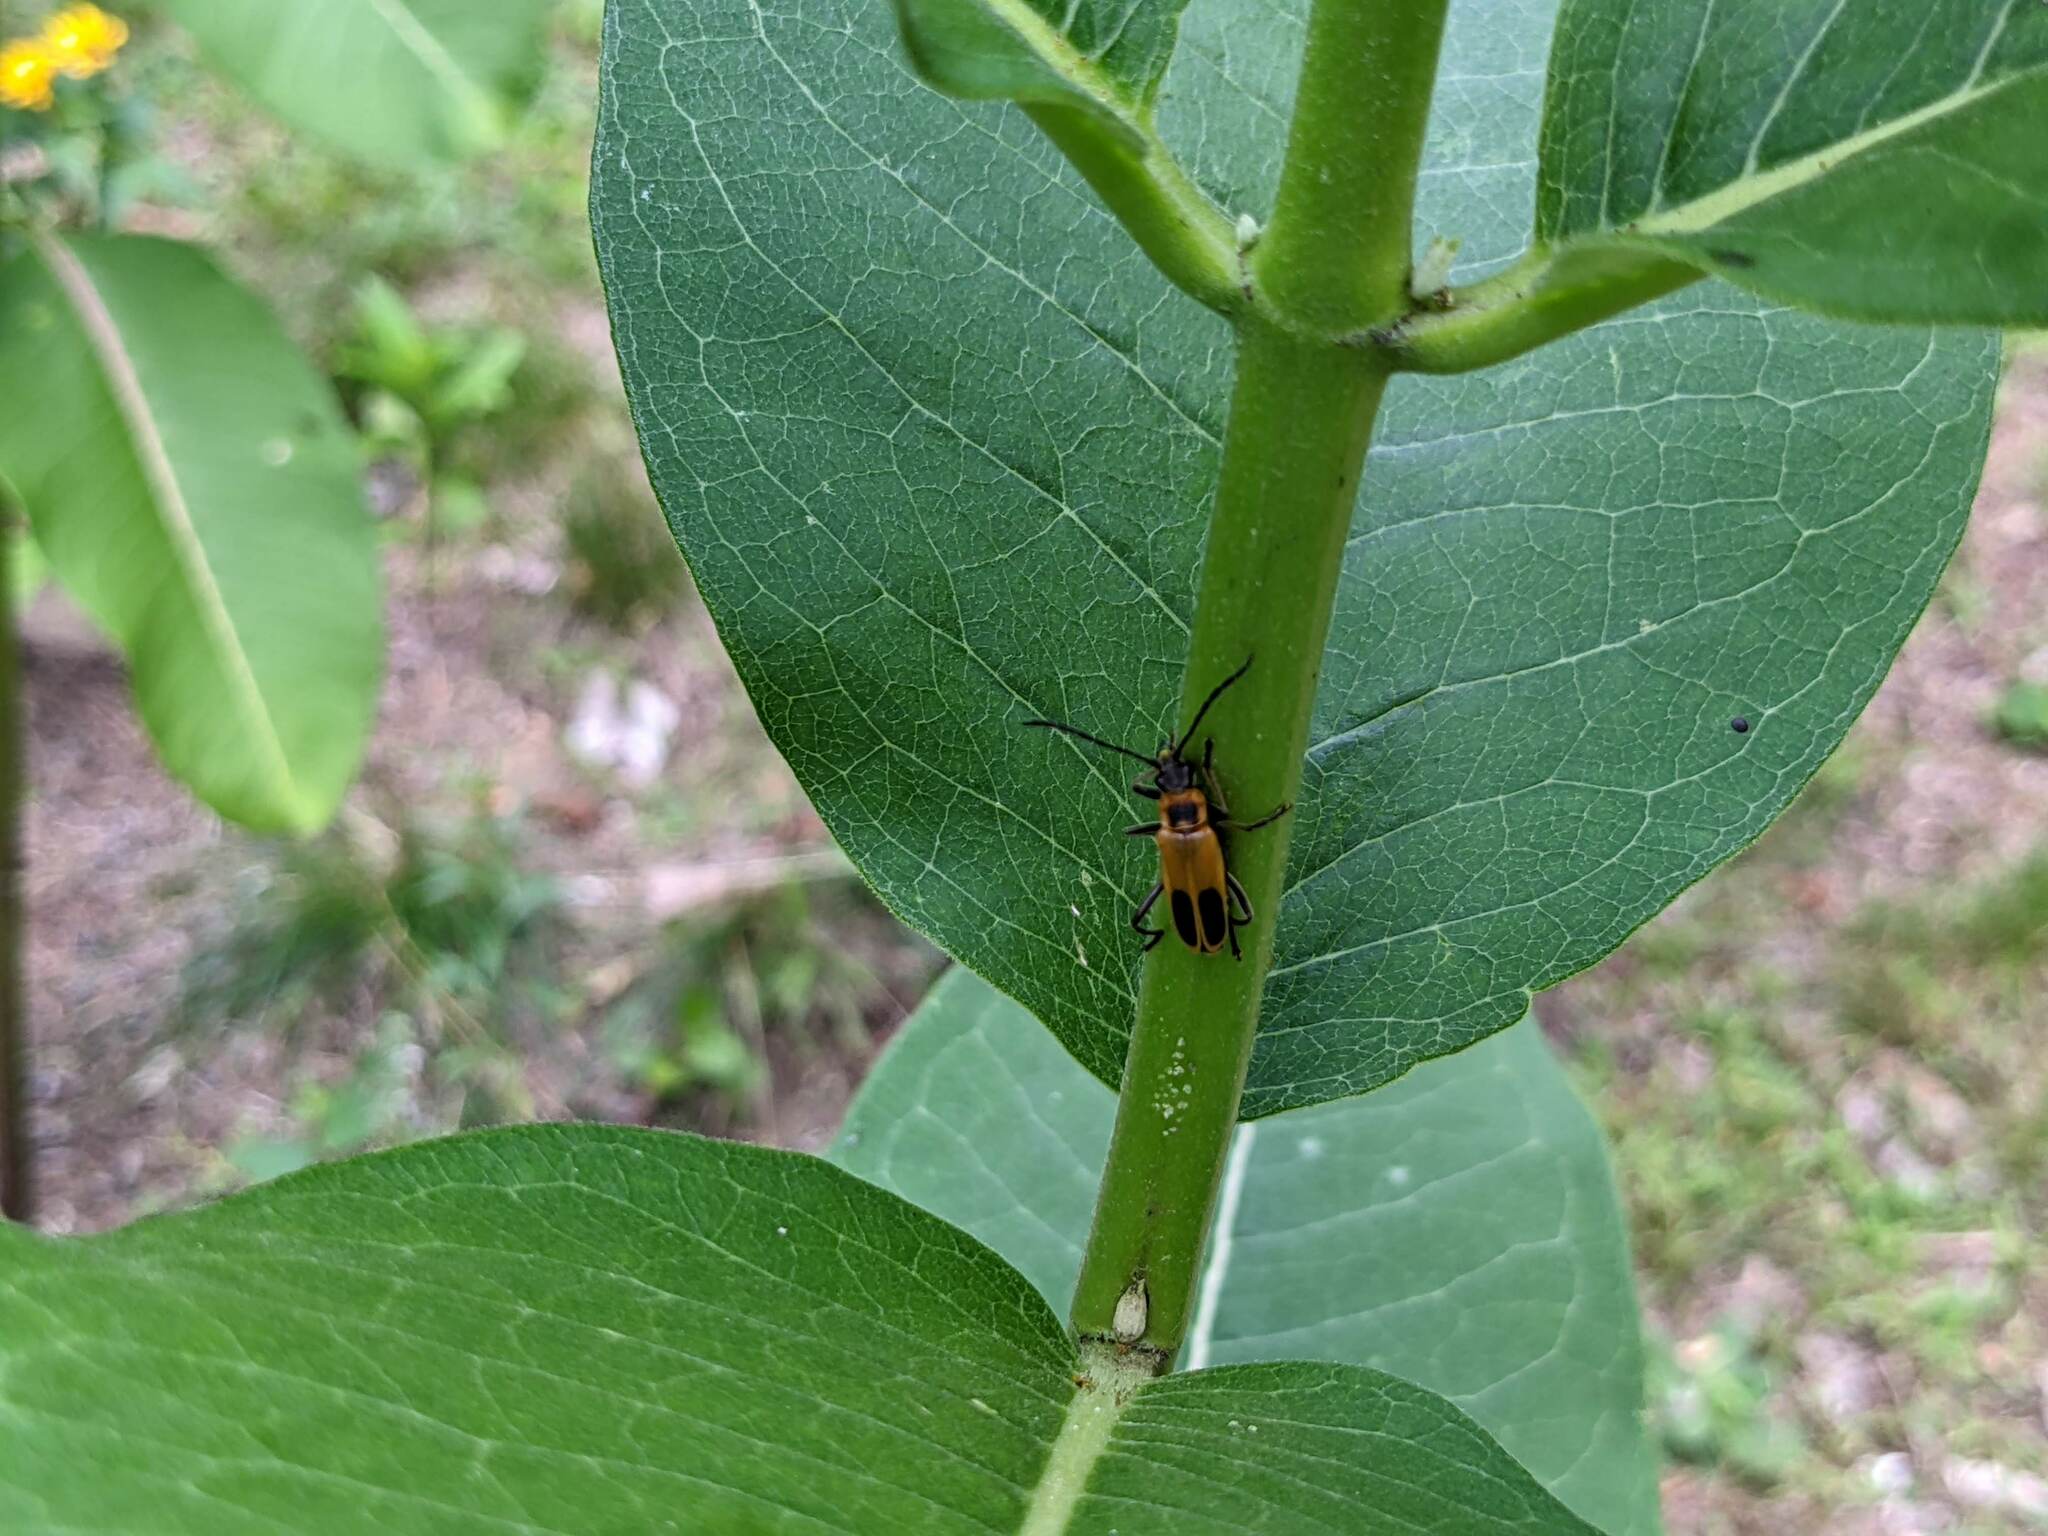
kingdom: Animalia
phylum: Arthropoda
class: Insecta
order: Coleoptera
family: Cantharidae
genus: Chauliognathus
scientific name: Chauliognathus pensylvanicus
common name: Goldenrod soldier beetle
